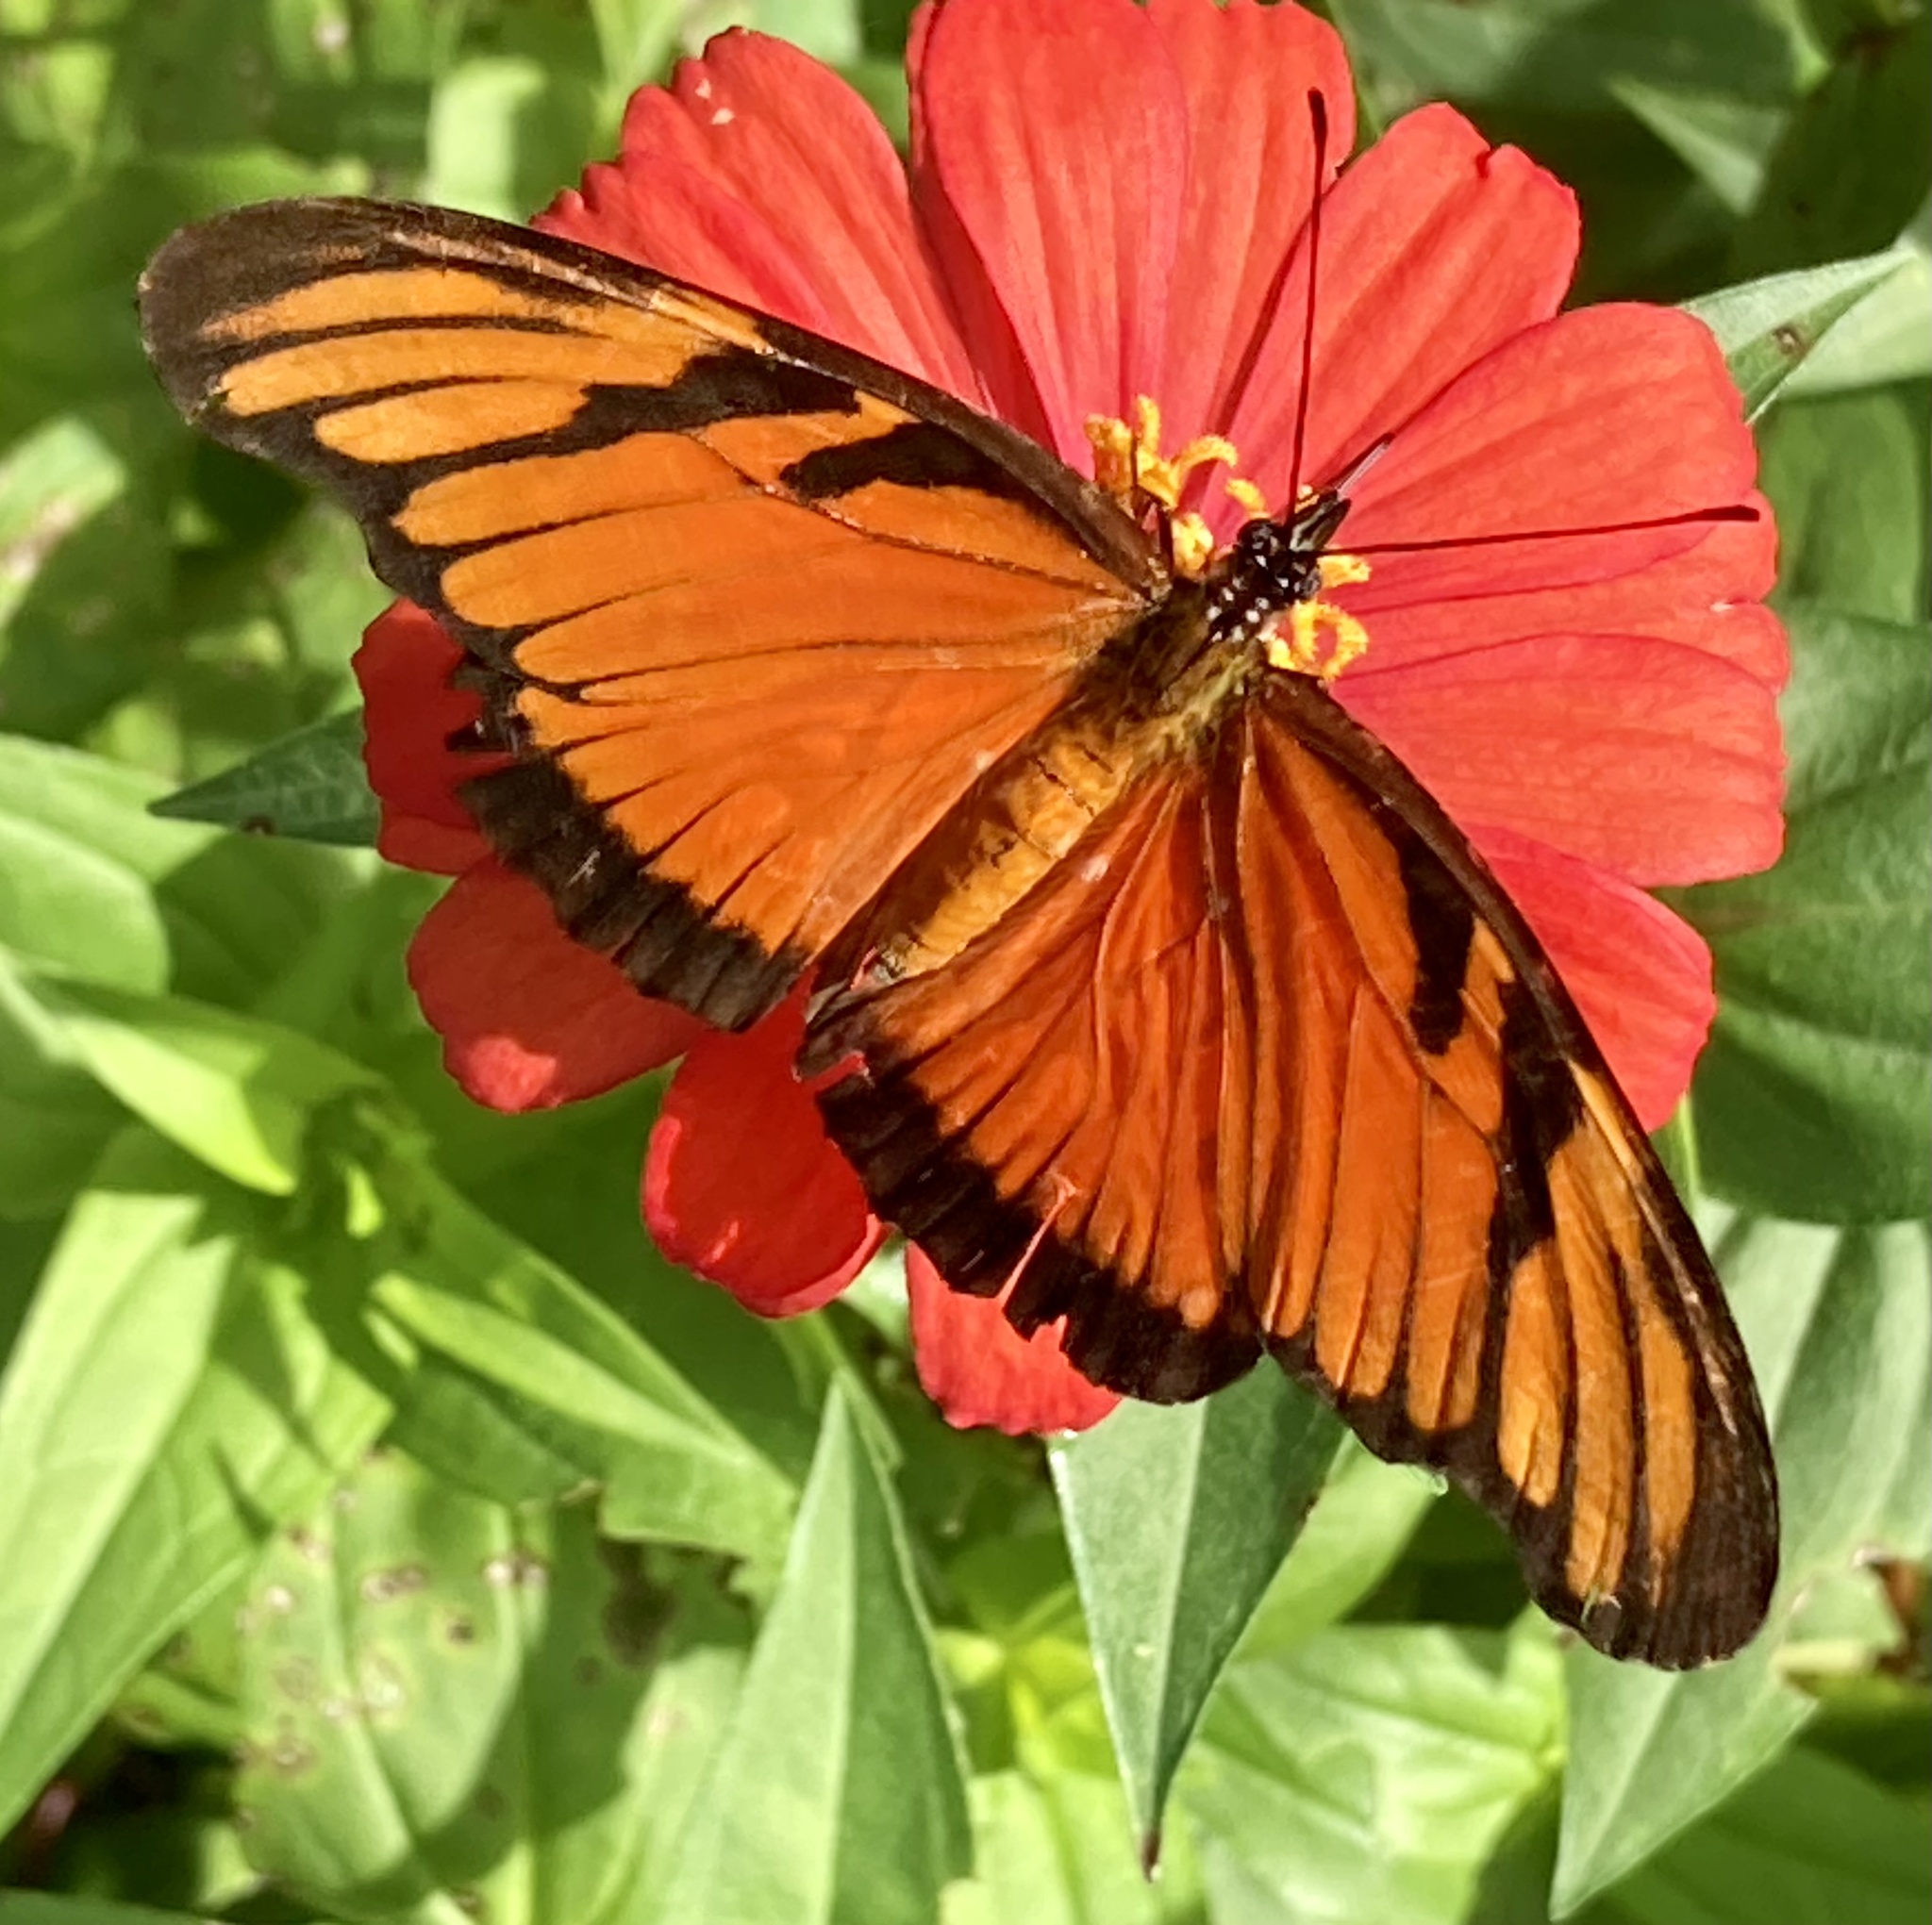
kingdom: Animalia
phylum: Arthropoda
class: Insecta
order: Lepidoptera
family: Nymphalidae
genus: Dione
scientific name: Dione juno
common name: Juno silverspot
